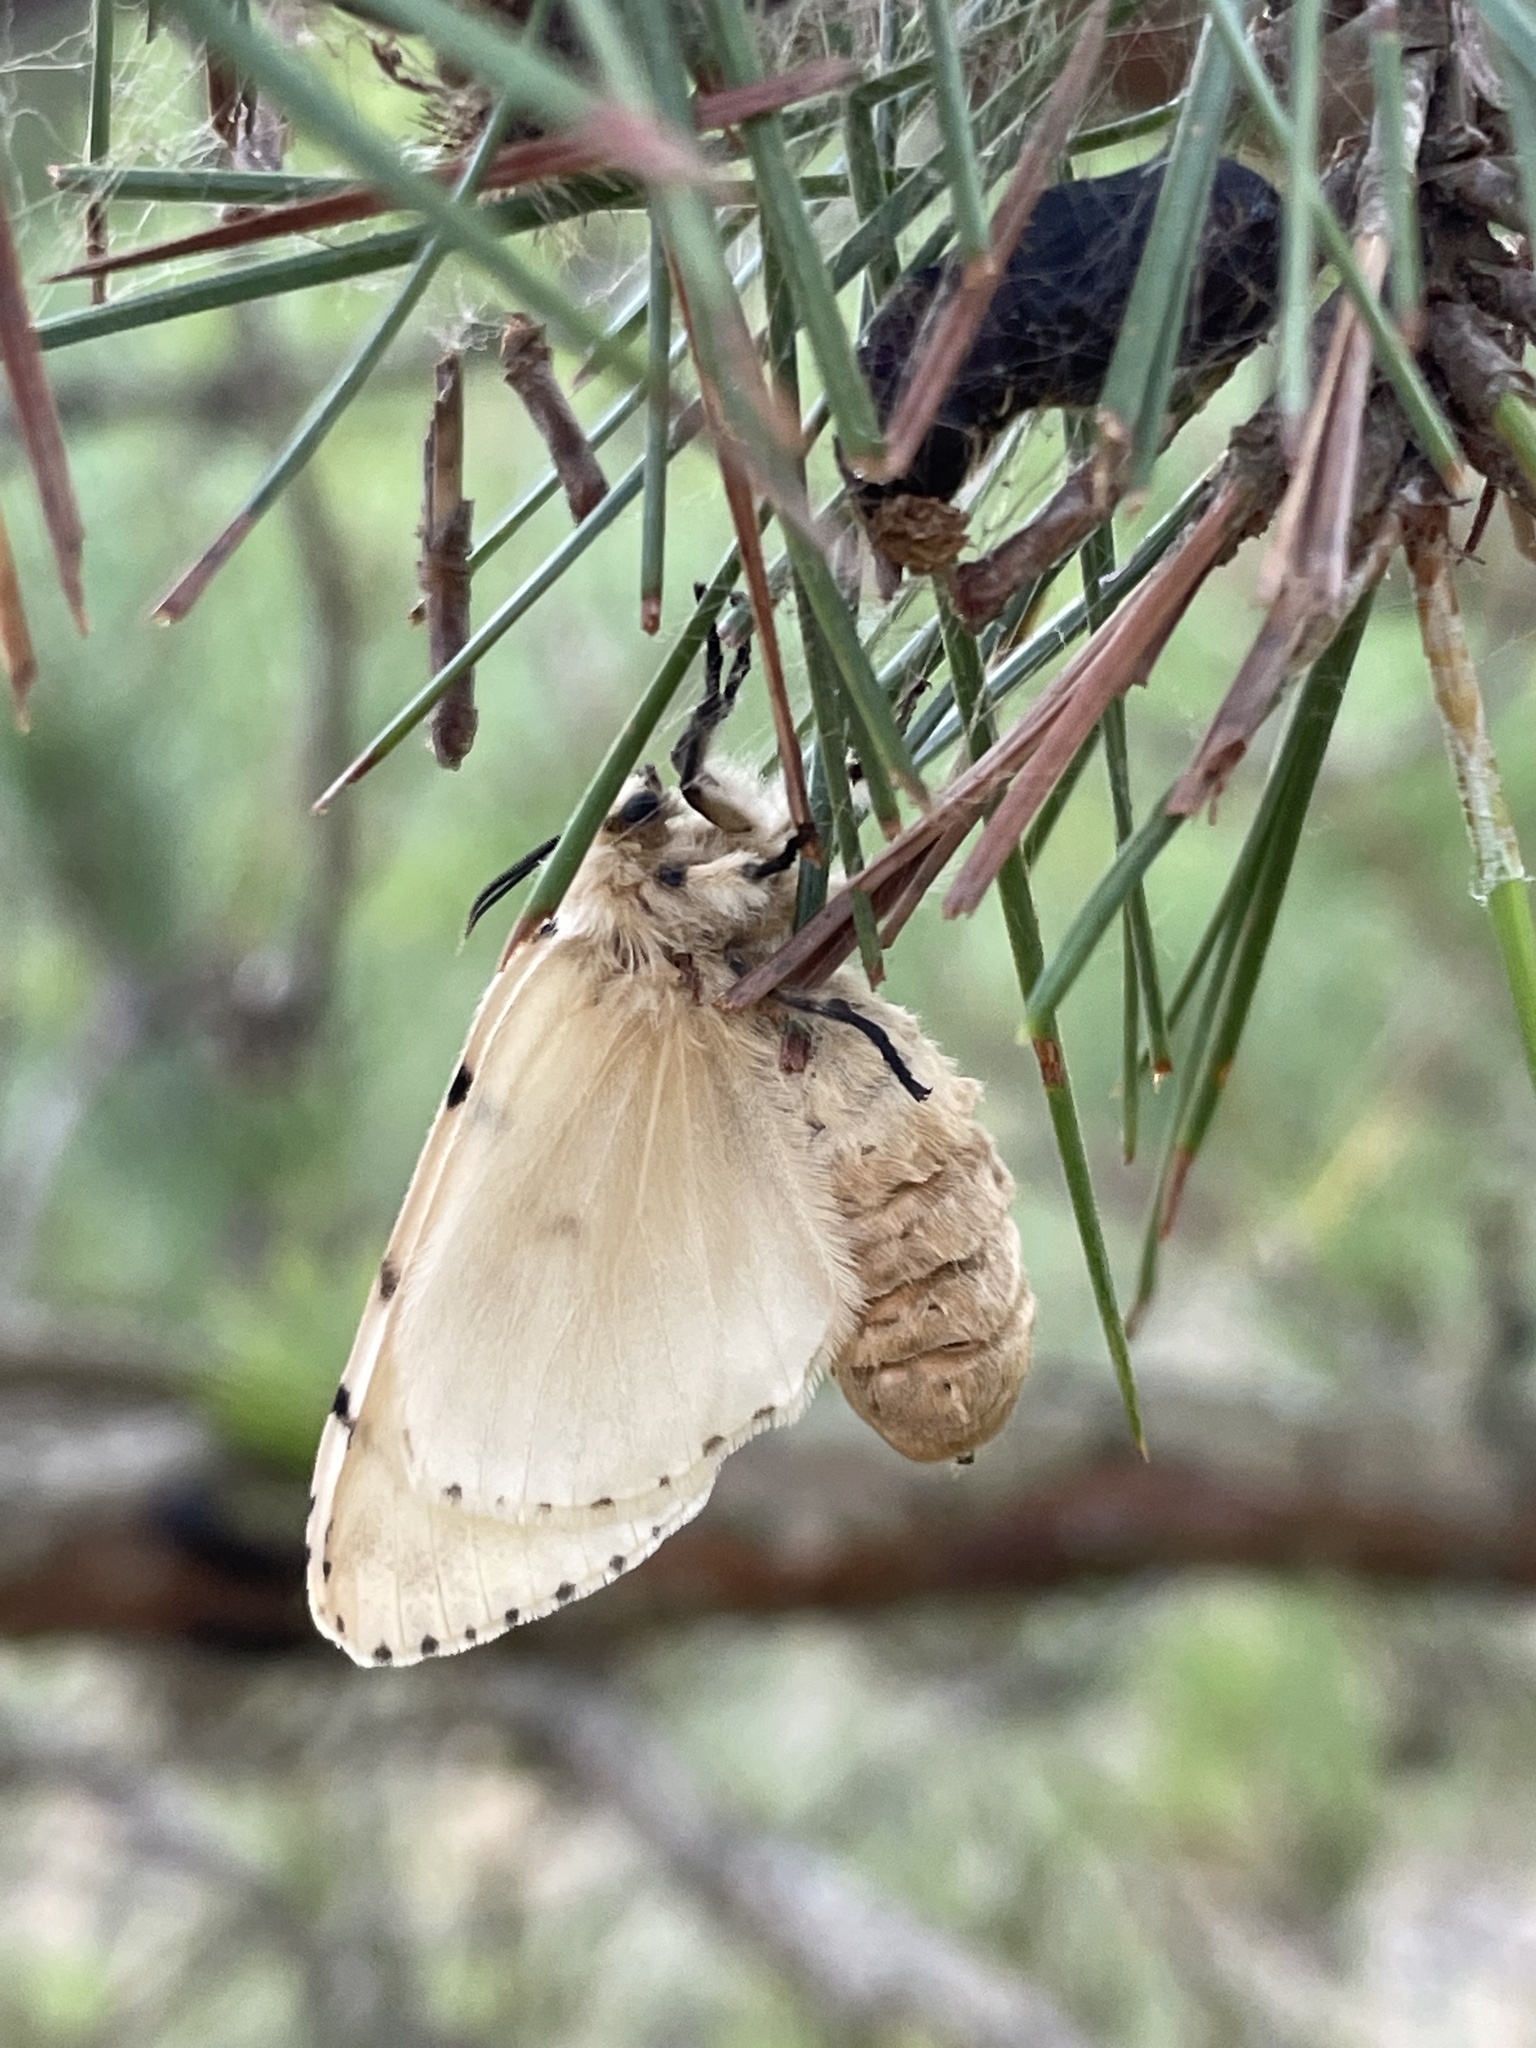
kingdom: Animalia
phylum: Arthropoda
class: Insecta
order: Lepidoptera
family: Erebidae
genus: Lymantria
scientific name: Lymantria dispar
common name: Gypsy moth
